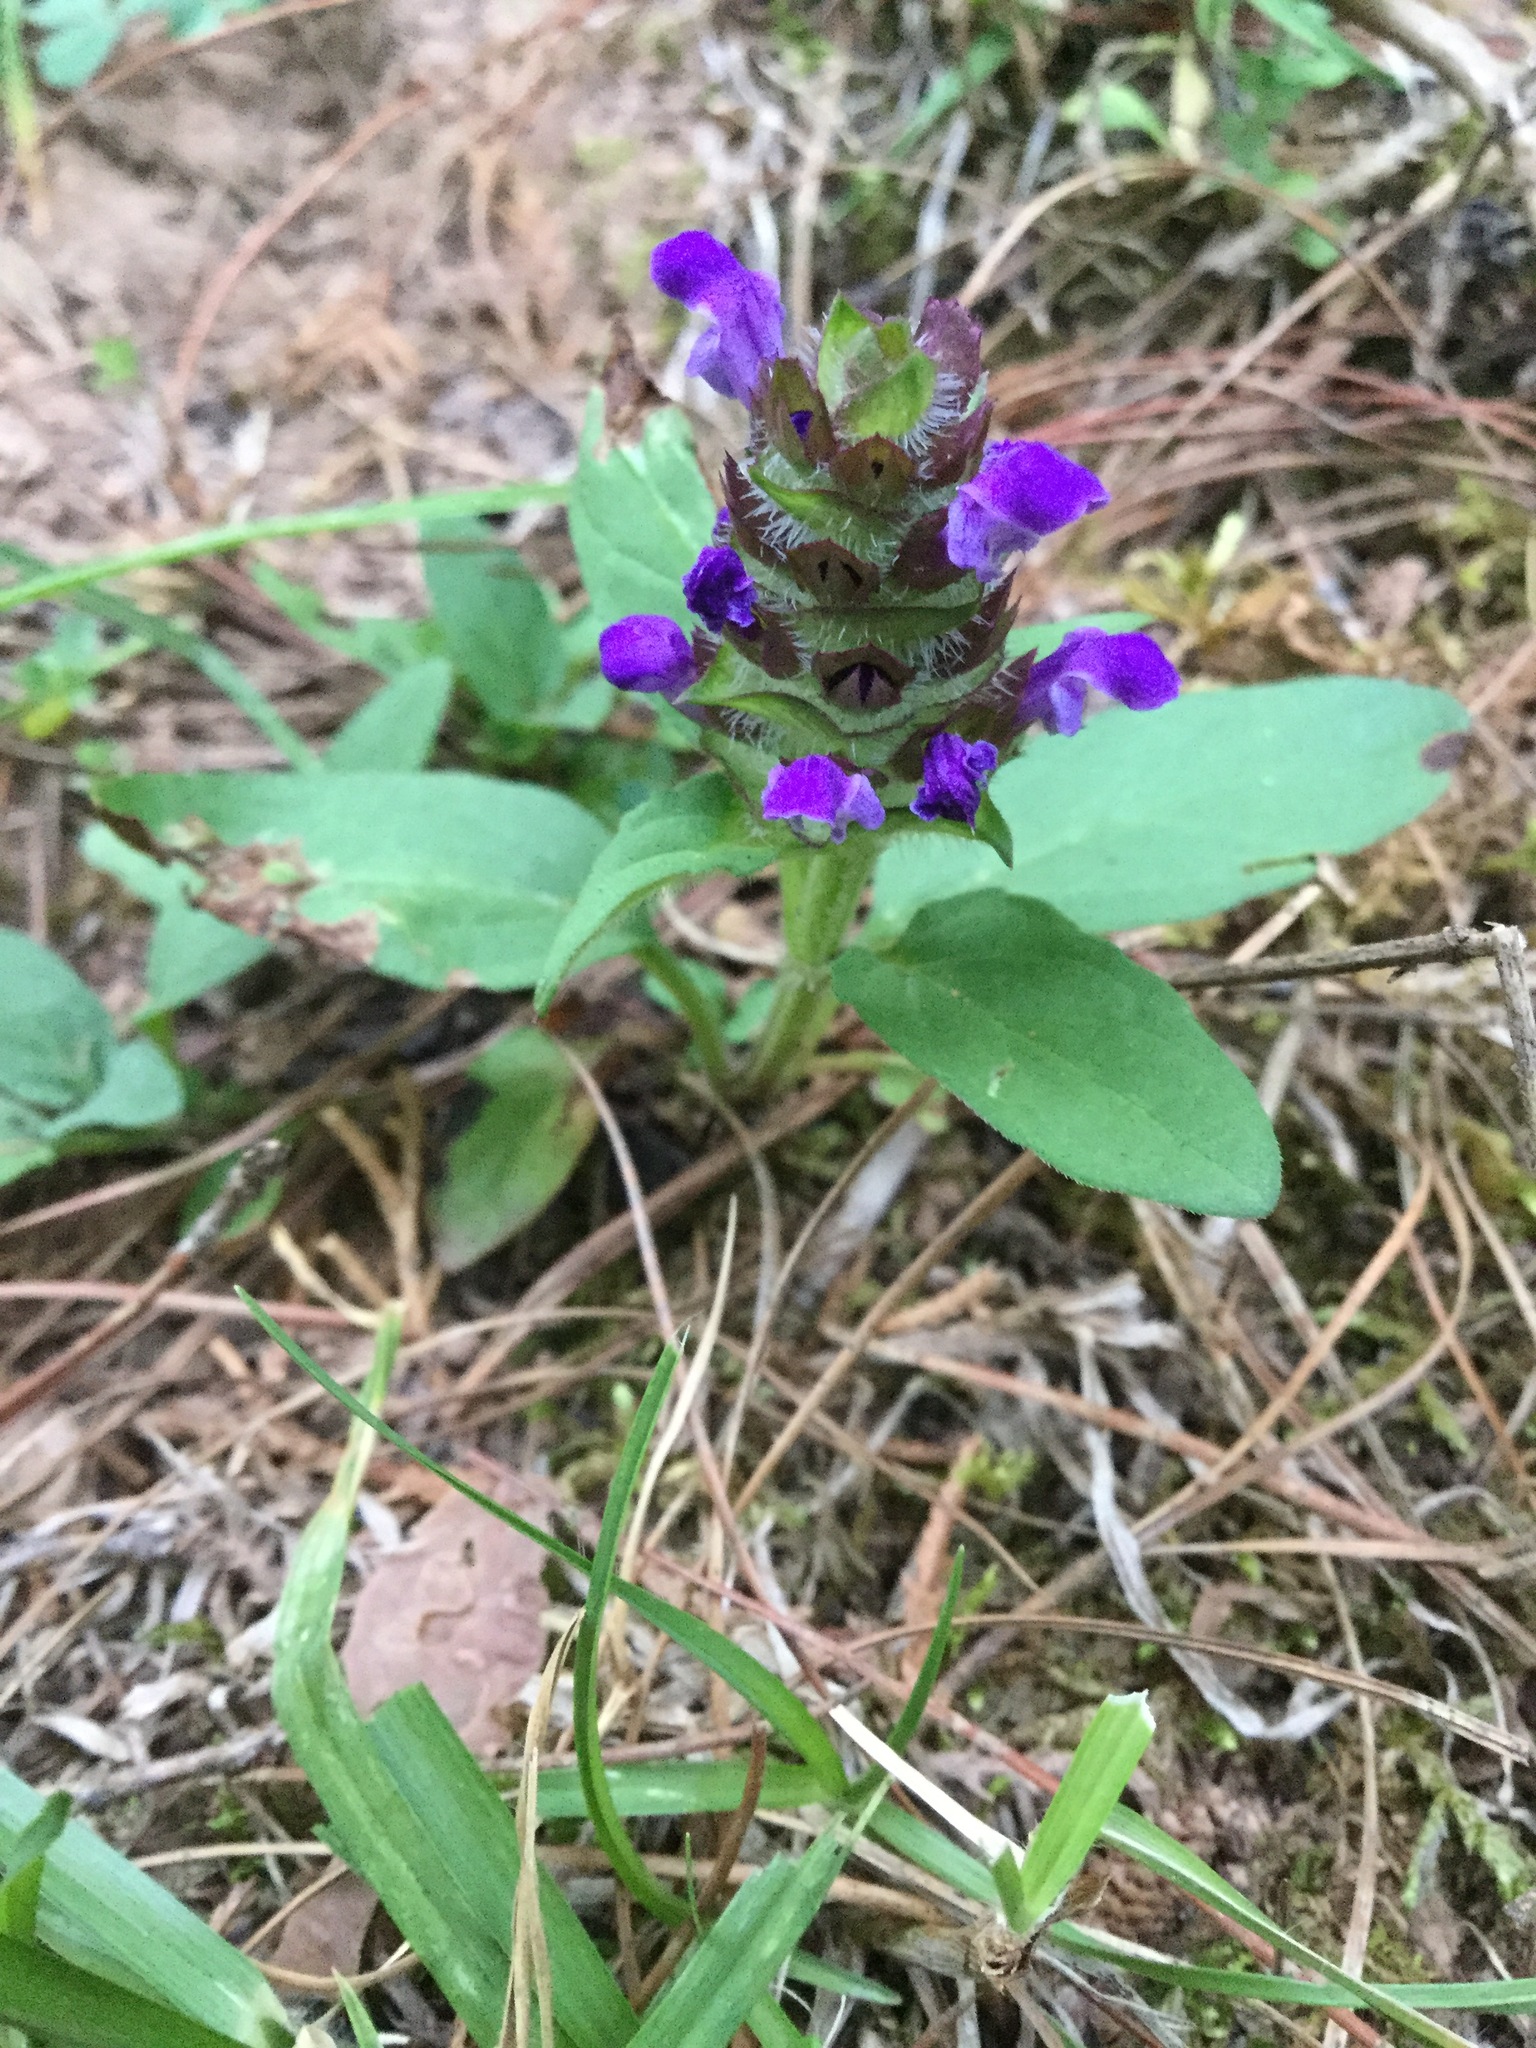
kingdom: Plantae
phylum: Tracheophyta
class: Magnoliopsida
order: Lamiales
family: Lamiaceae
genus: Prunella
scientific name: Prunella vulgaris
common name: Heal-all
